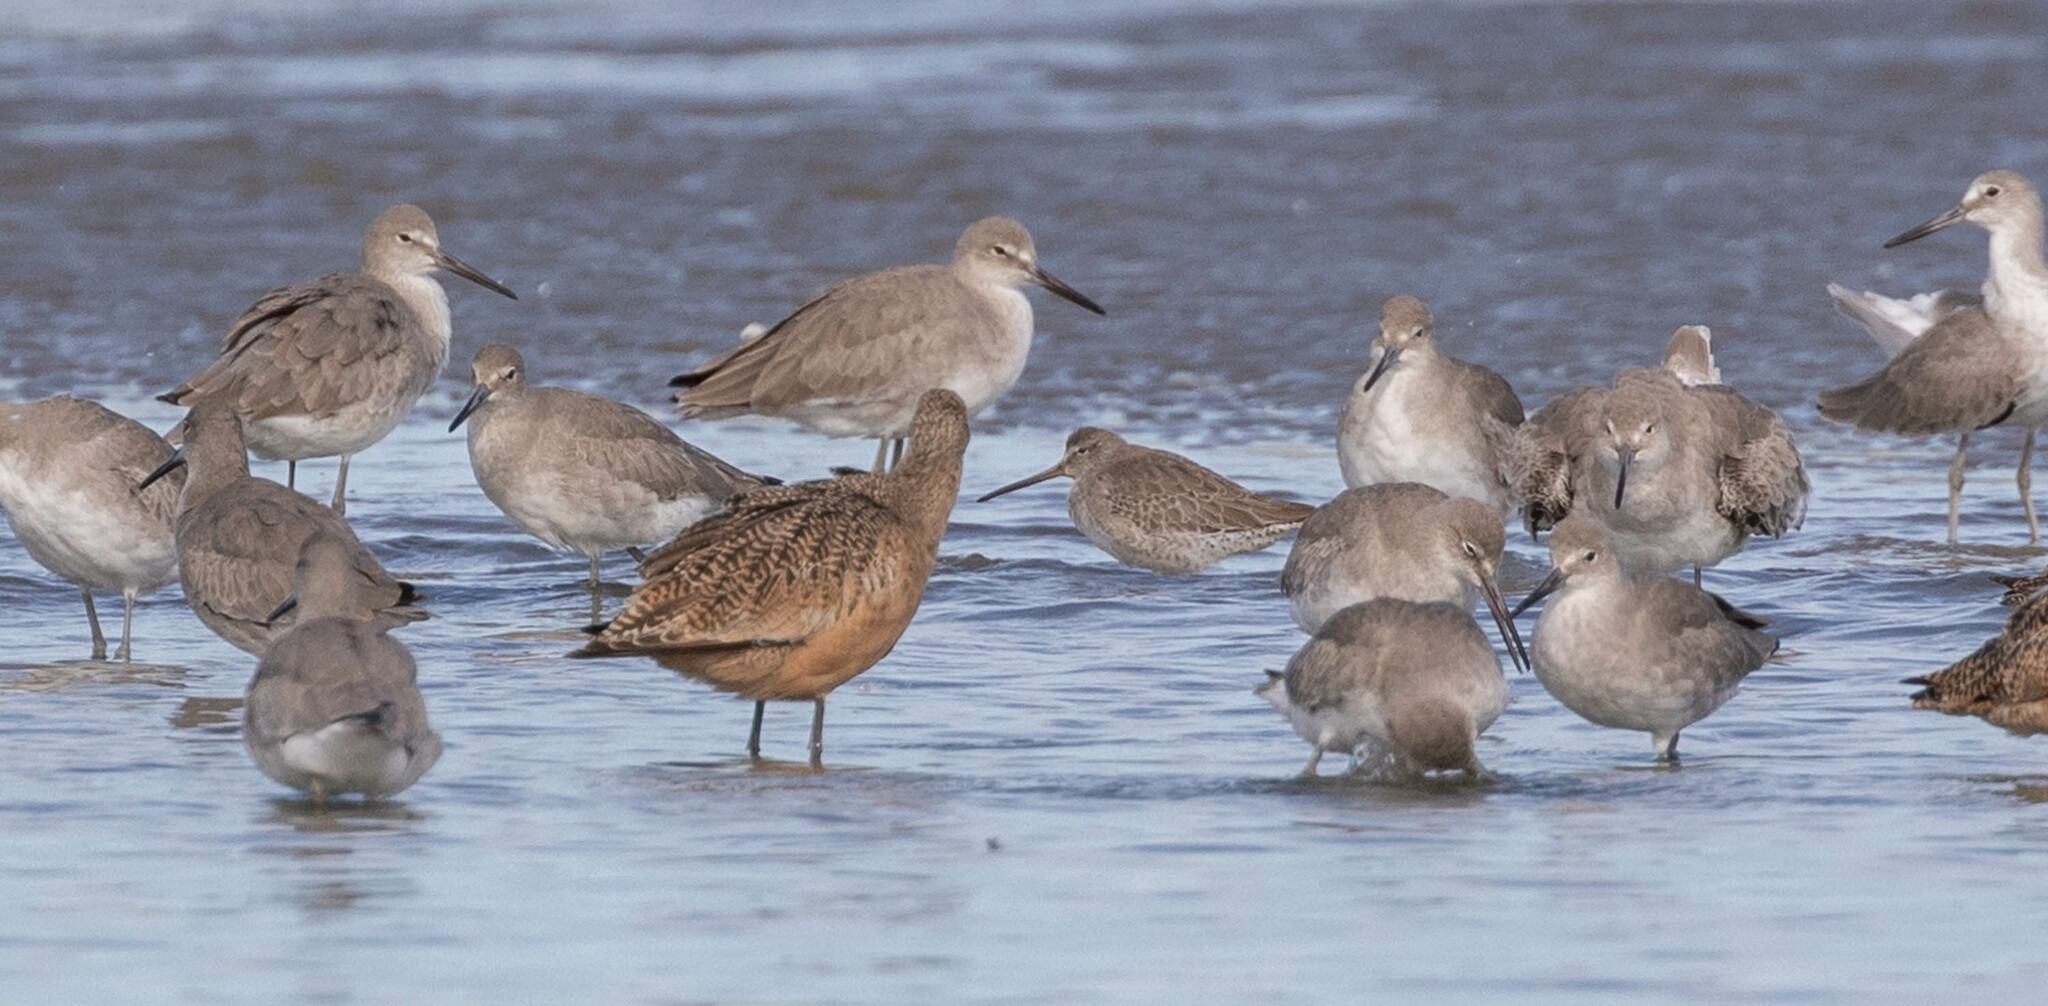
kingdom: Animalia
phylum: Chordata
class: Aves
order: Charadriiformes
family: Scolopacidae
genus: Limnodromus
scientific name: Limnodromus griseus
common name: Short-billed dowitcher
